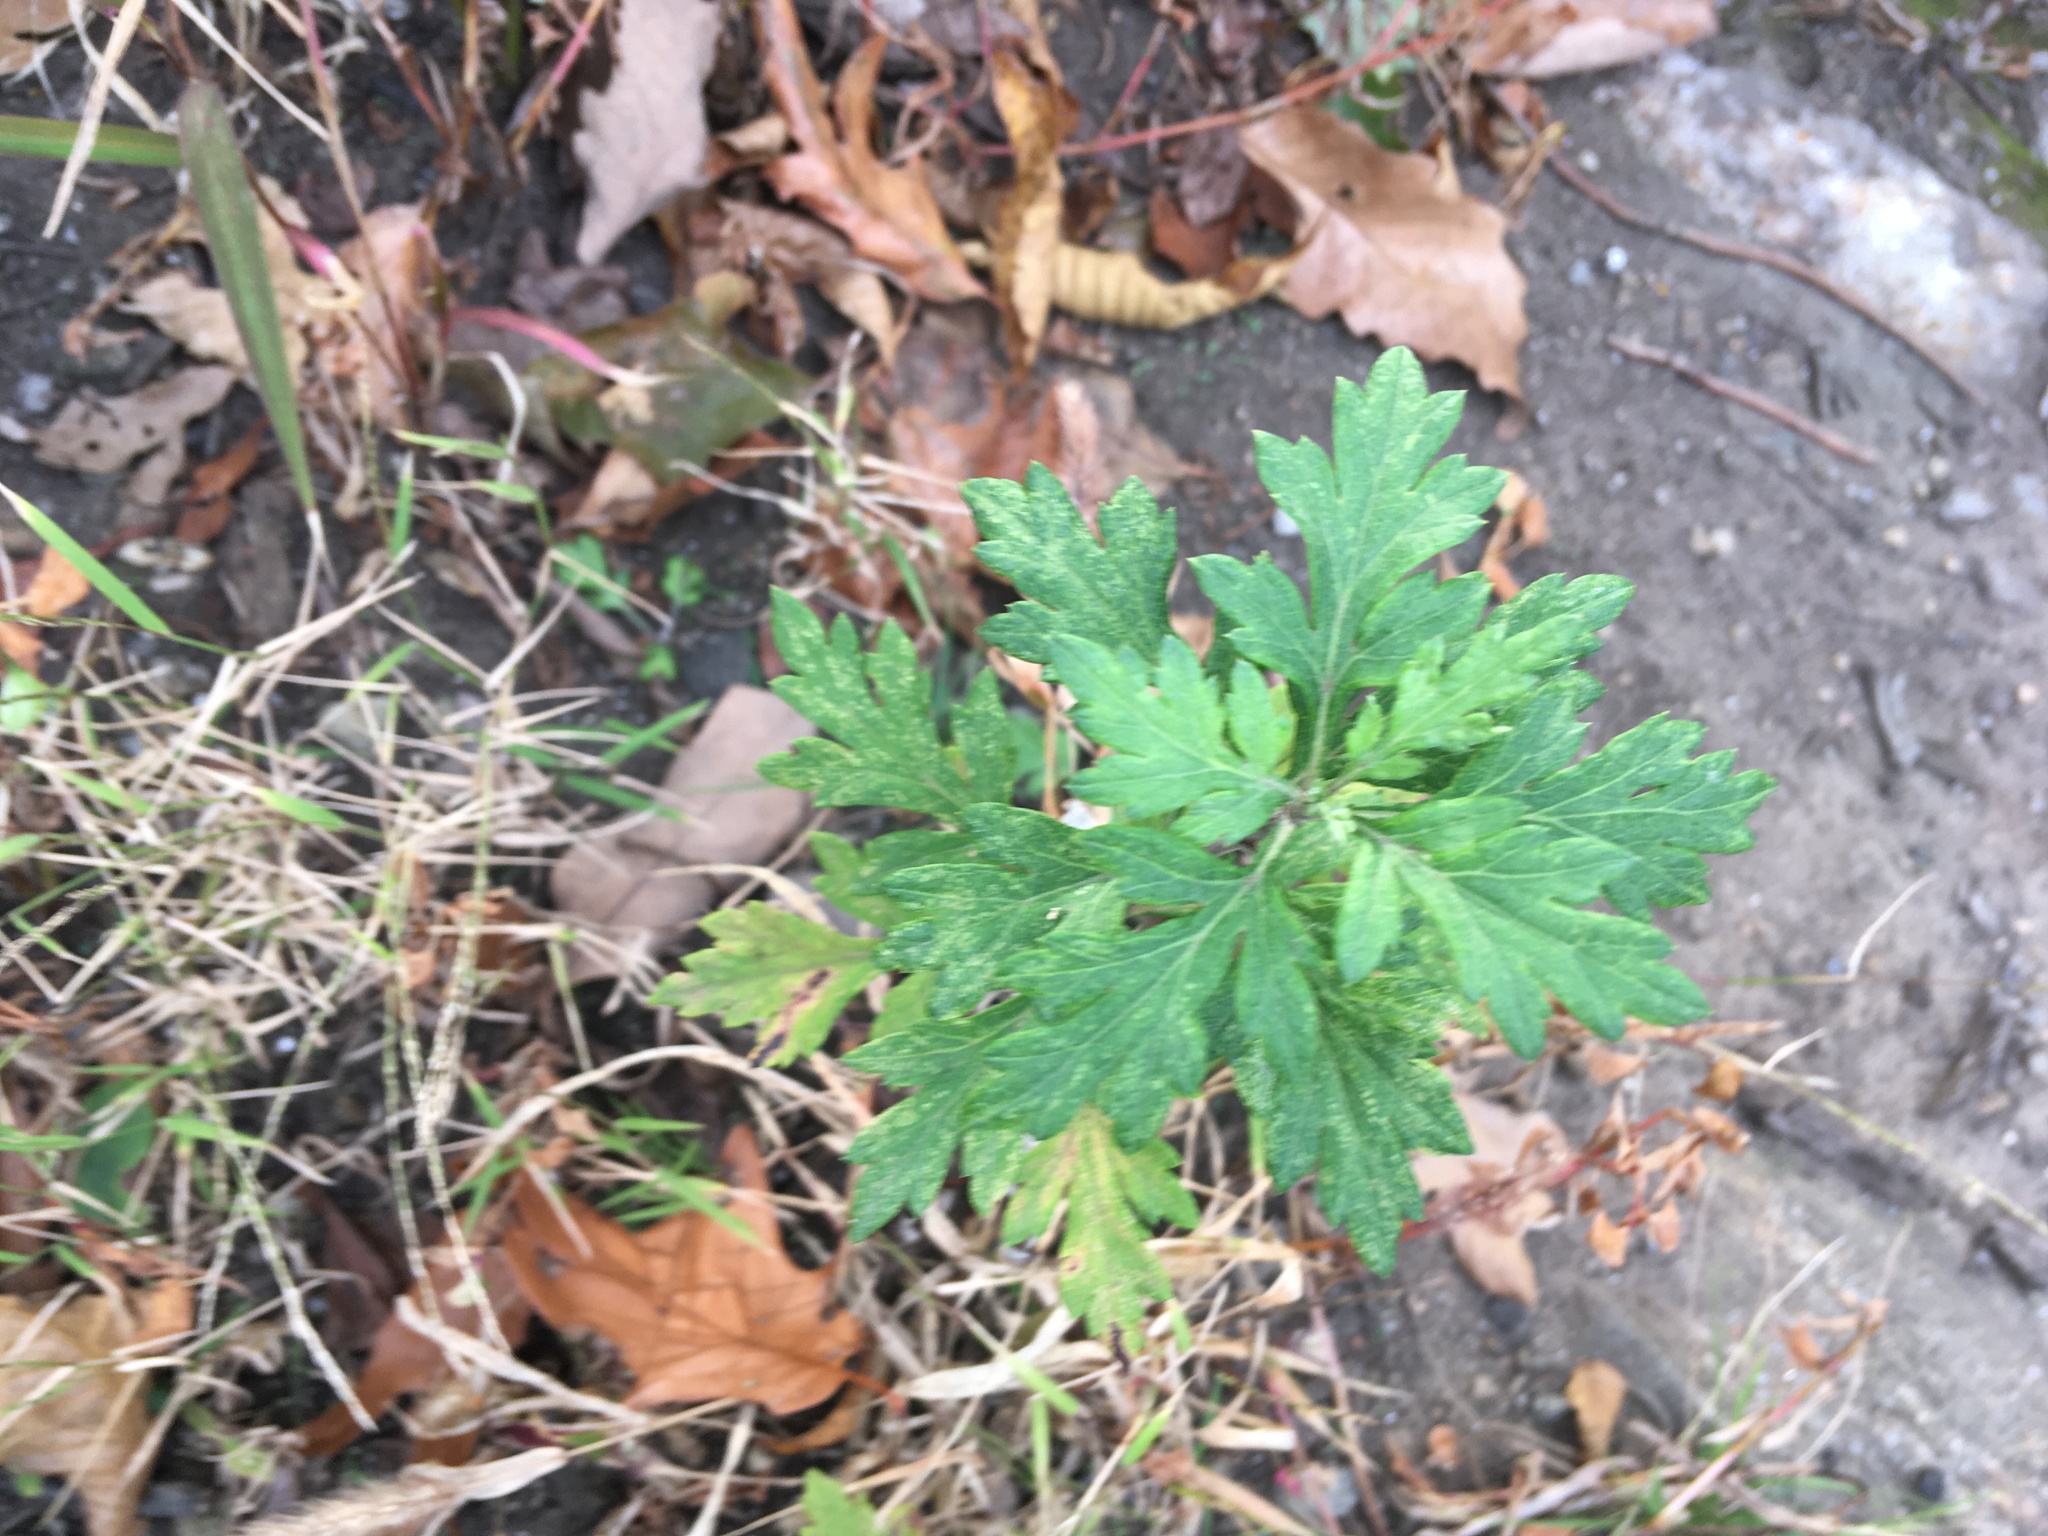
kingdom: Plantae
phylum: Tracheophyta
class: Magnoliopsida
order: Asterales
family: Asteraceae
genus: Artemisia
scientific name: Artemisia vulgaris
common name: Mugwort
